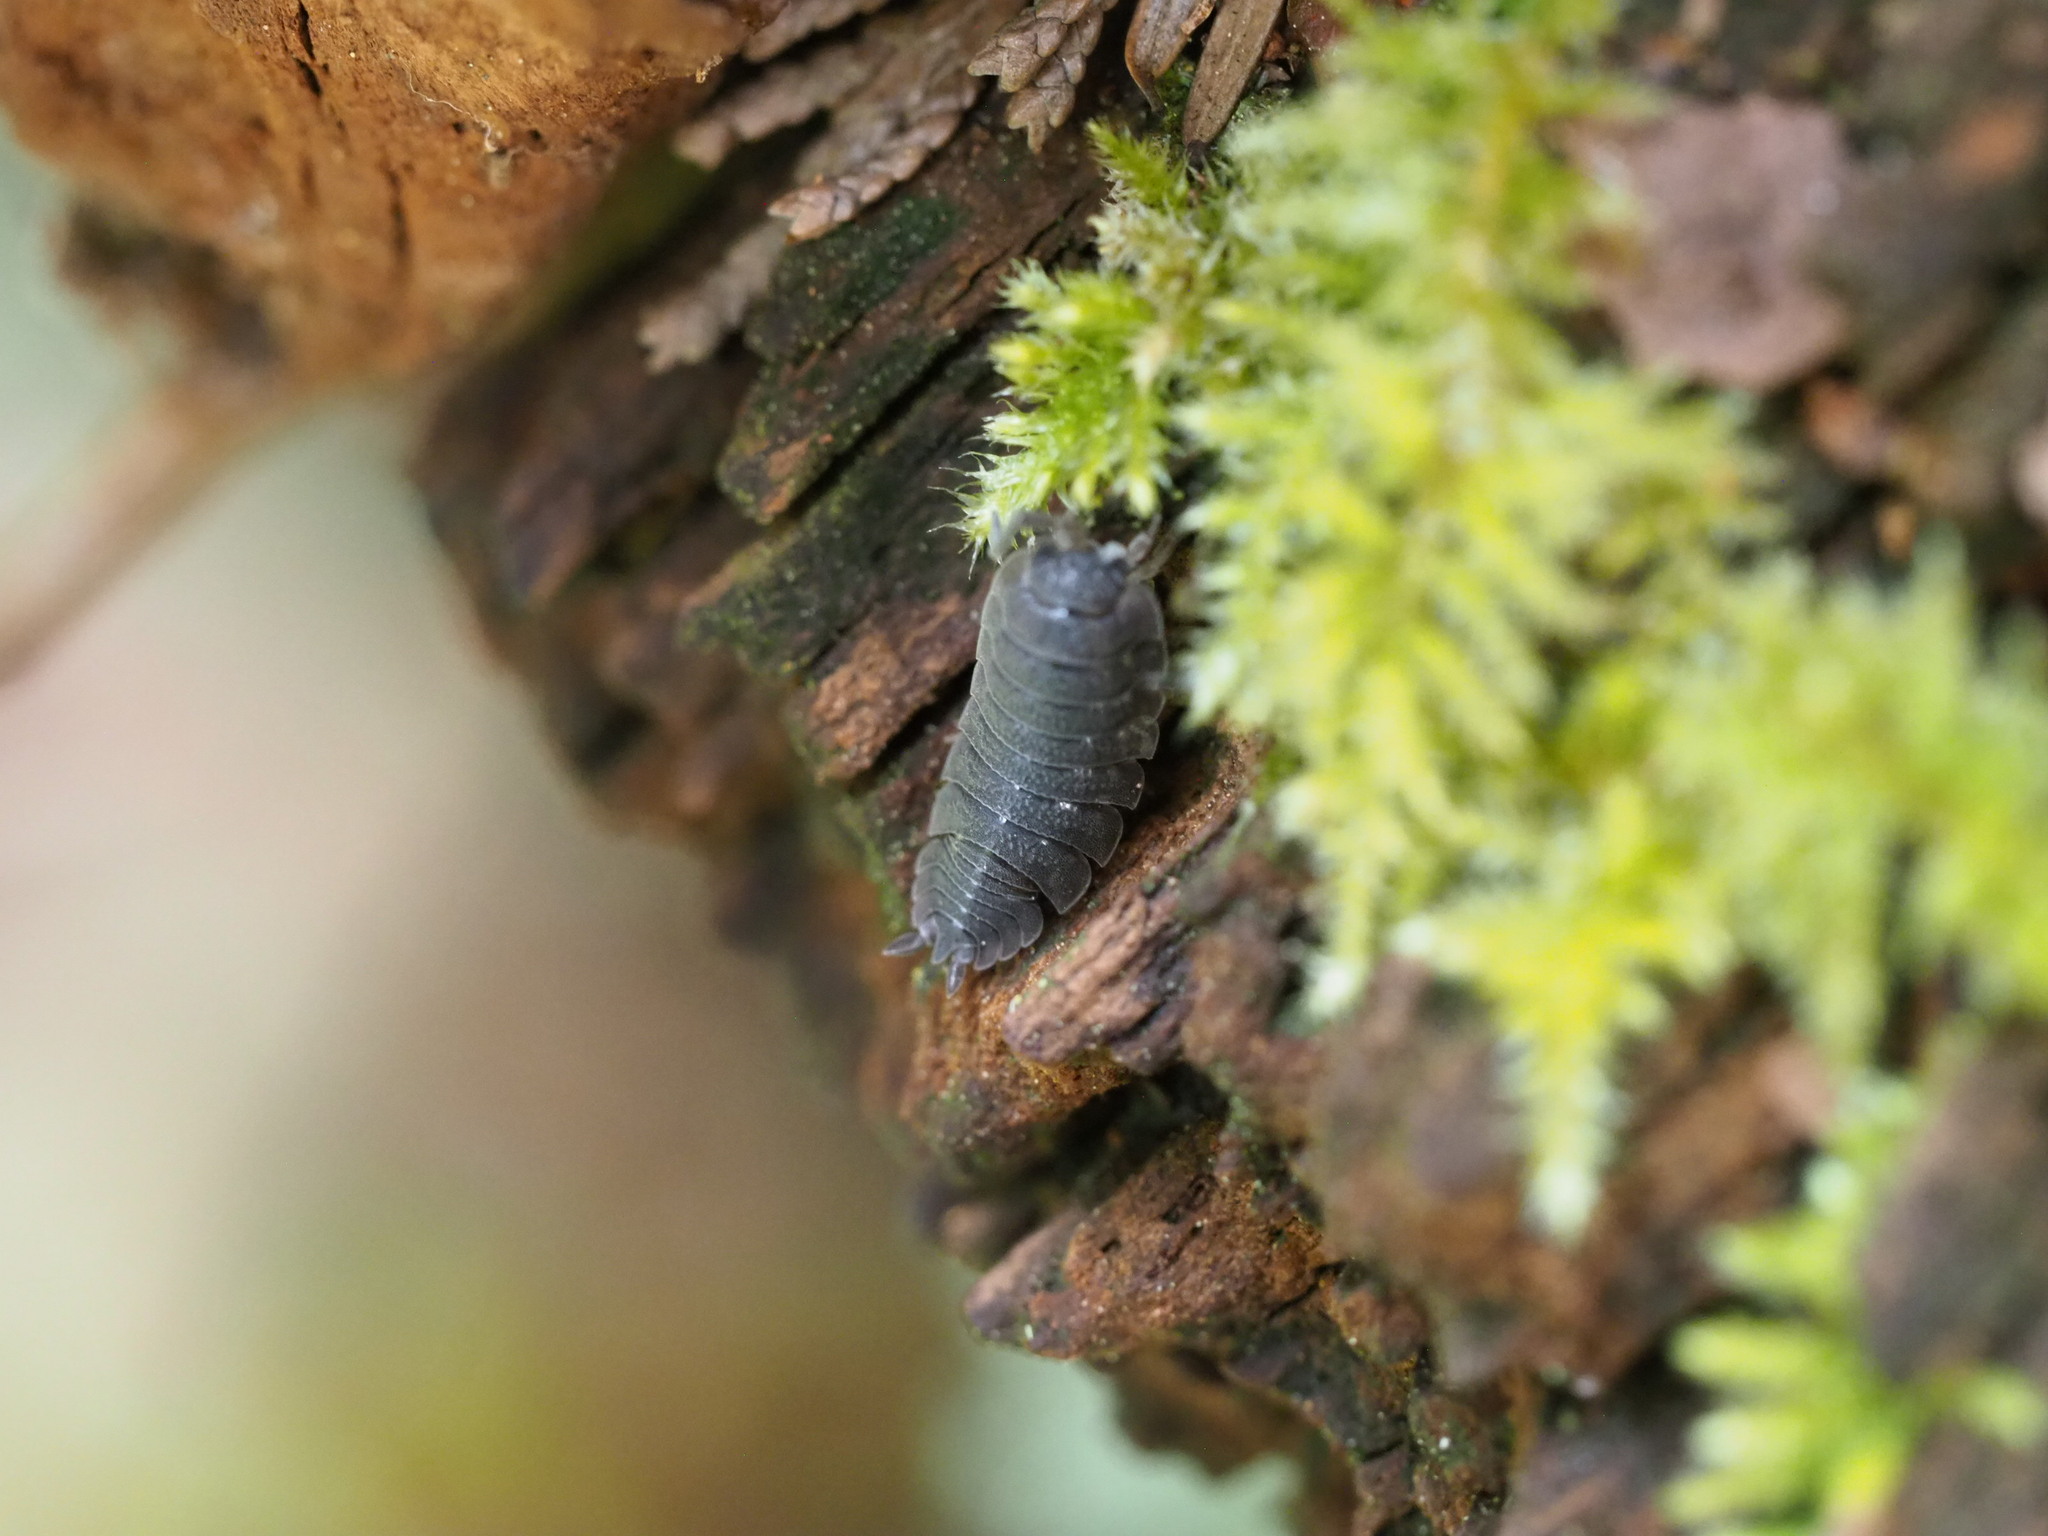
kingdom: Animalia
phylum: Arthropoda
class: Malacostraca
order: Isopoda
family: Porcellionidae
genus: Porcellio
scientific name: Porcellio scaber
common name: Common rough woodlouse
